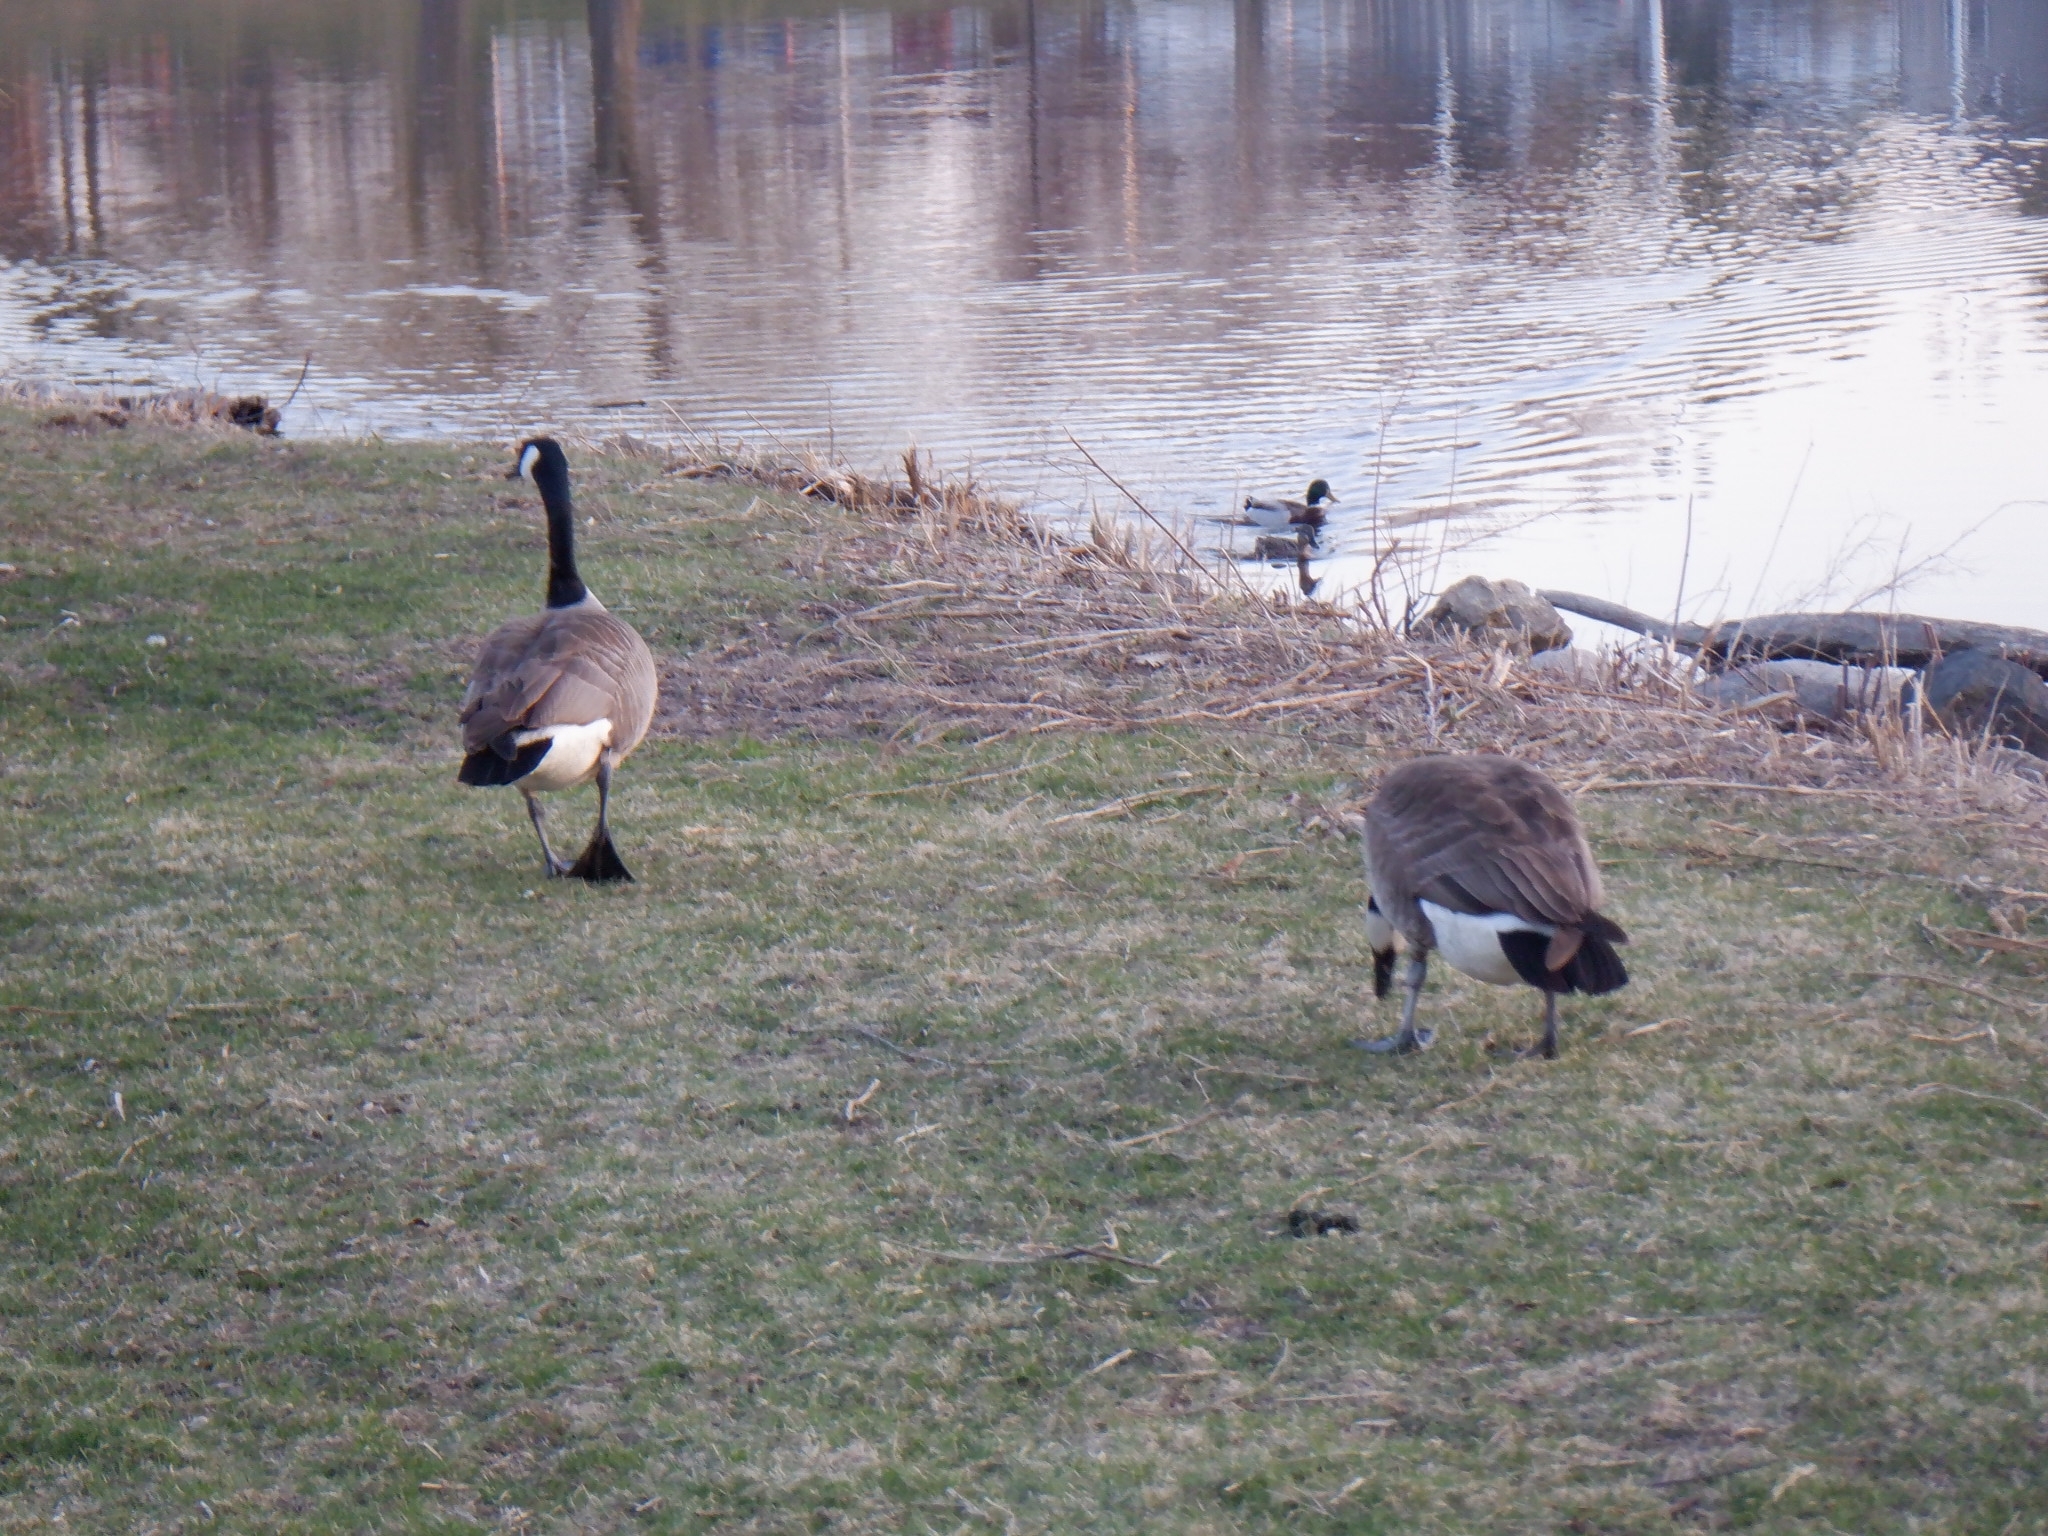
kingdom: Animalia
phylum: Chordata
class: Aves
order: Anseriformes
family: Anatidae
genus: Branta
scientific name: Branta canadensis
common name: Canada goose
